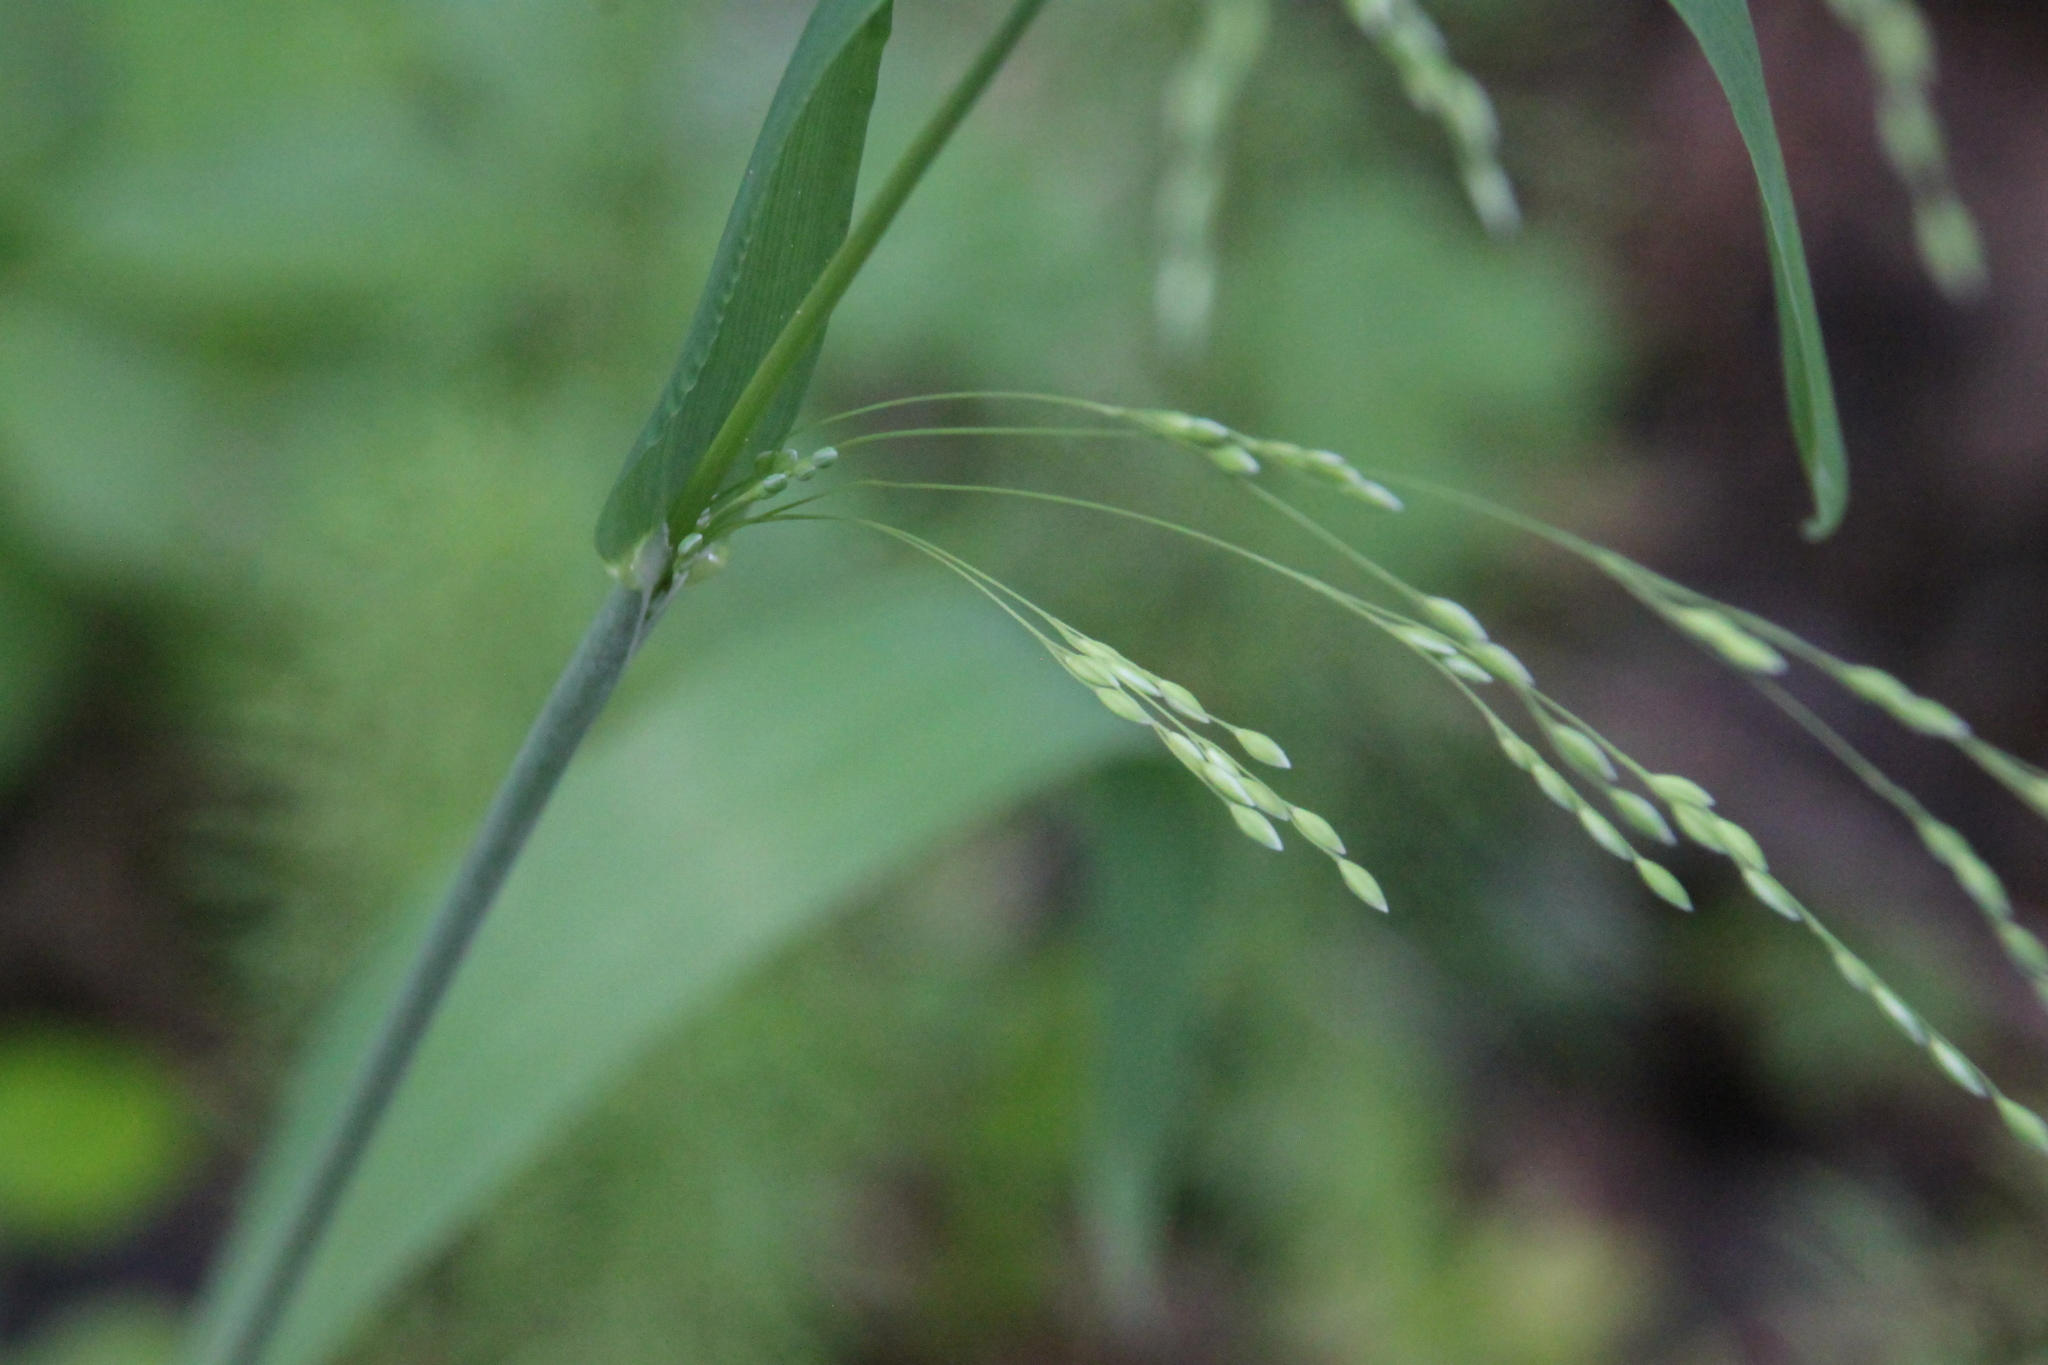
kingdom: Plantae
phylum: Tracheophyta
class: Liliopsida
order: Poales
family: Poaceae
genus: Milium
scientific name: Milium effusum
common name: Wood millet
